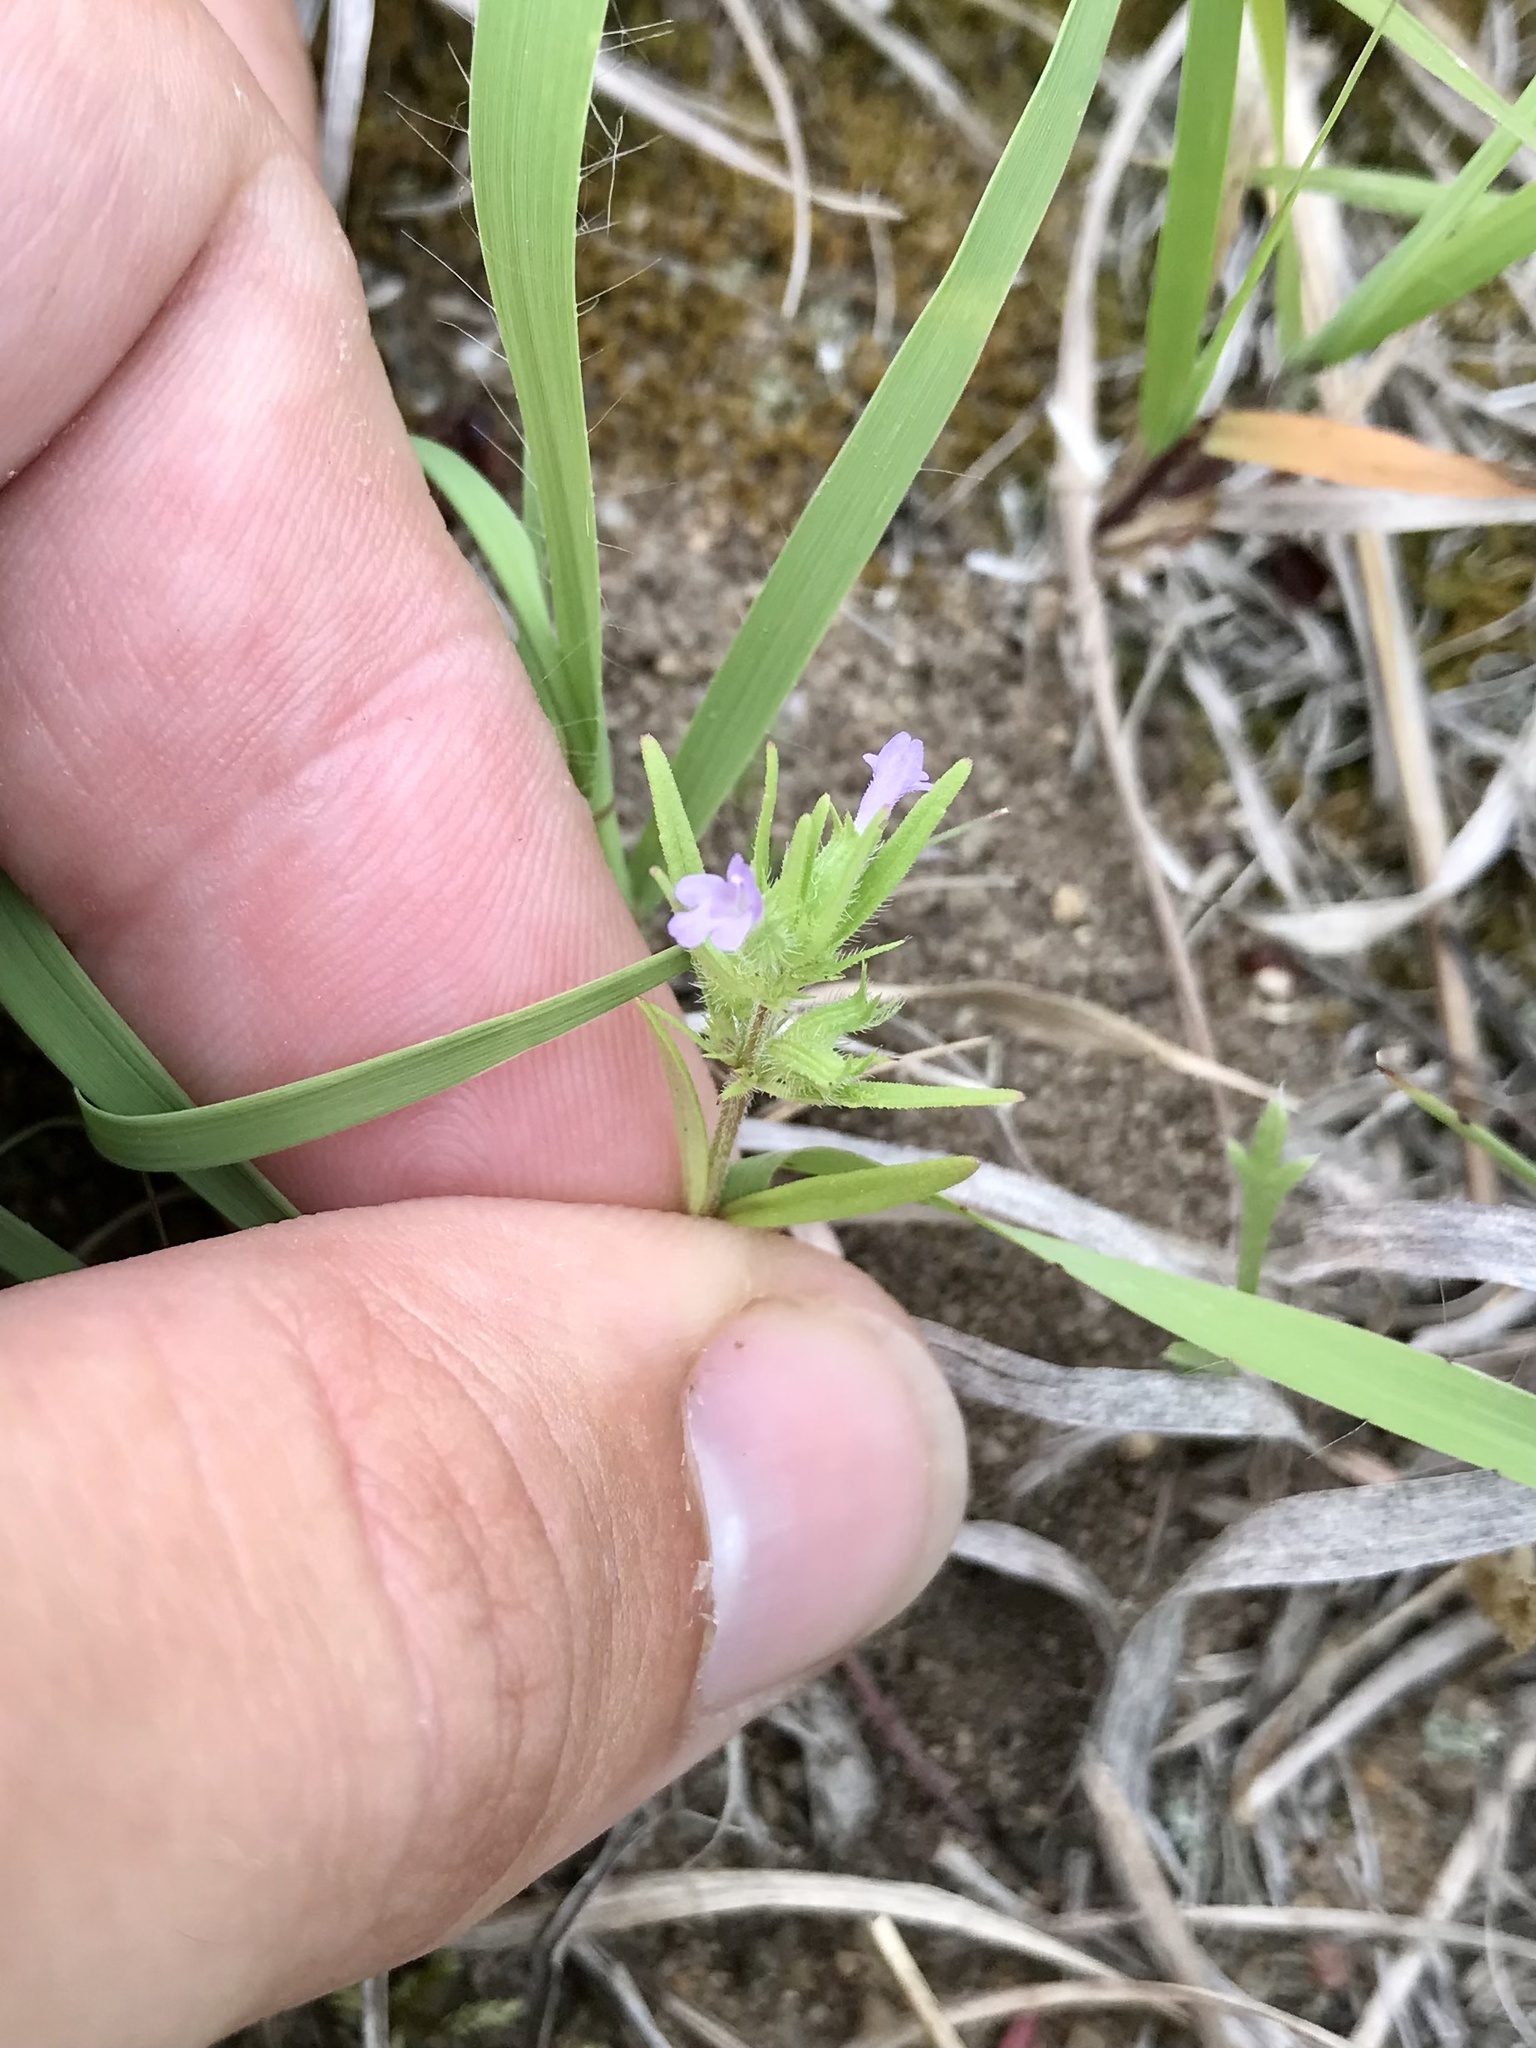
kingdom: Plantae
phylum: Tracheophyta
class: Magnoliopsida
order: Lamiales
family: Lamiaceae
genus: Hedeoma
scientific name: Hedeoma hispida
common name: Mock pennyroyal
